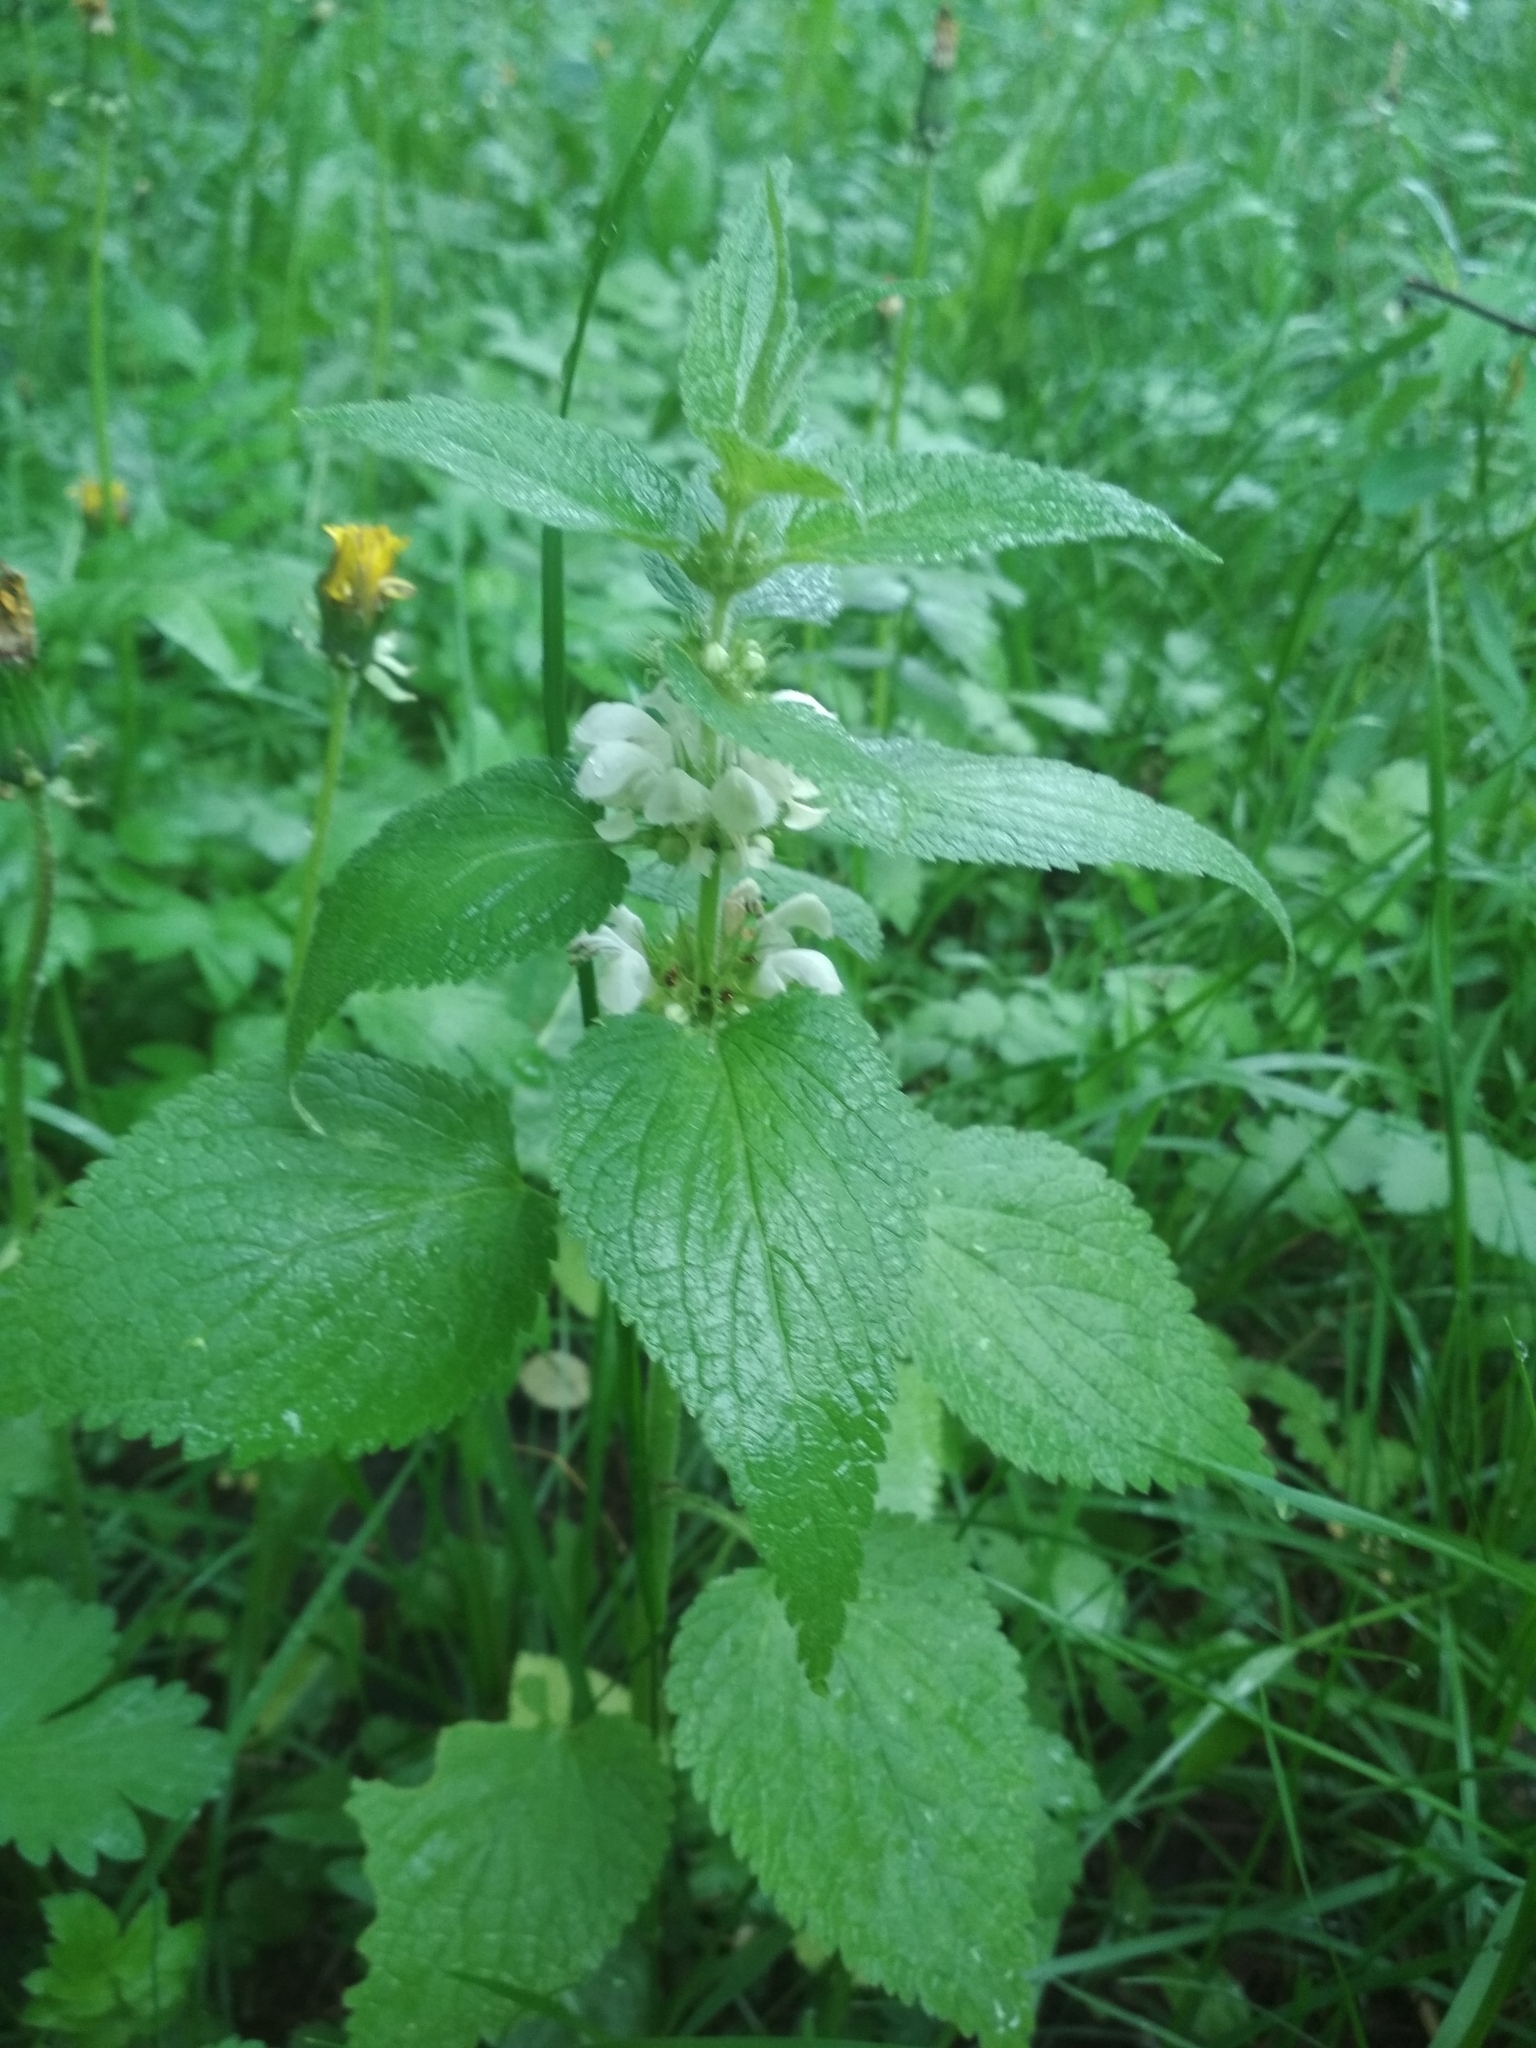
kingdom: Plantae
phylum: Tracheophyta
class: Magnoliopsida
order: Lamiales
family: Lamiaceae
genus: Lamium
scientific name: Lamium album
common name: White dead-nettle
